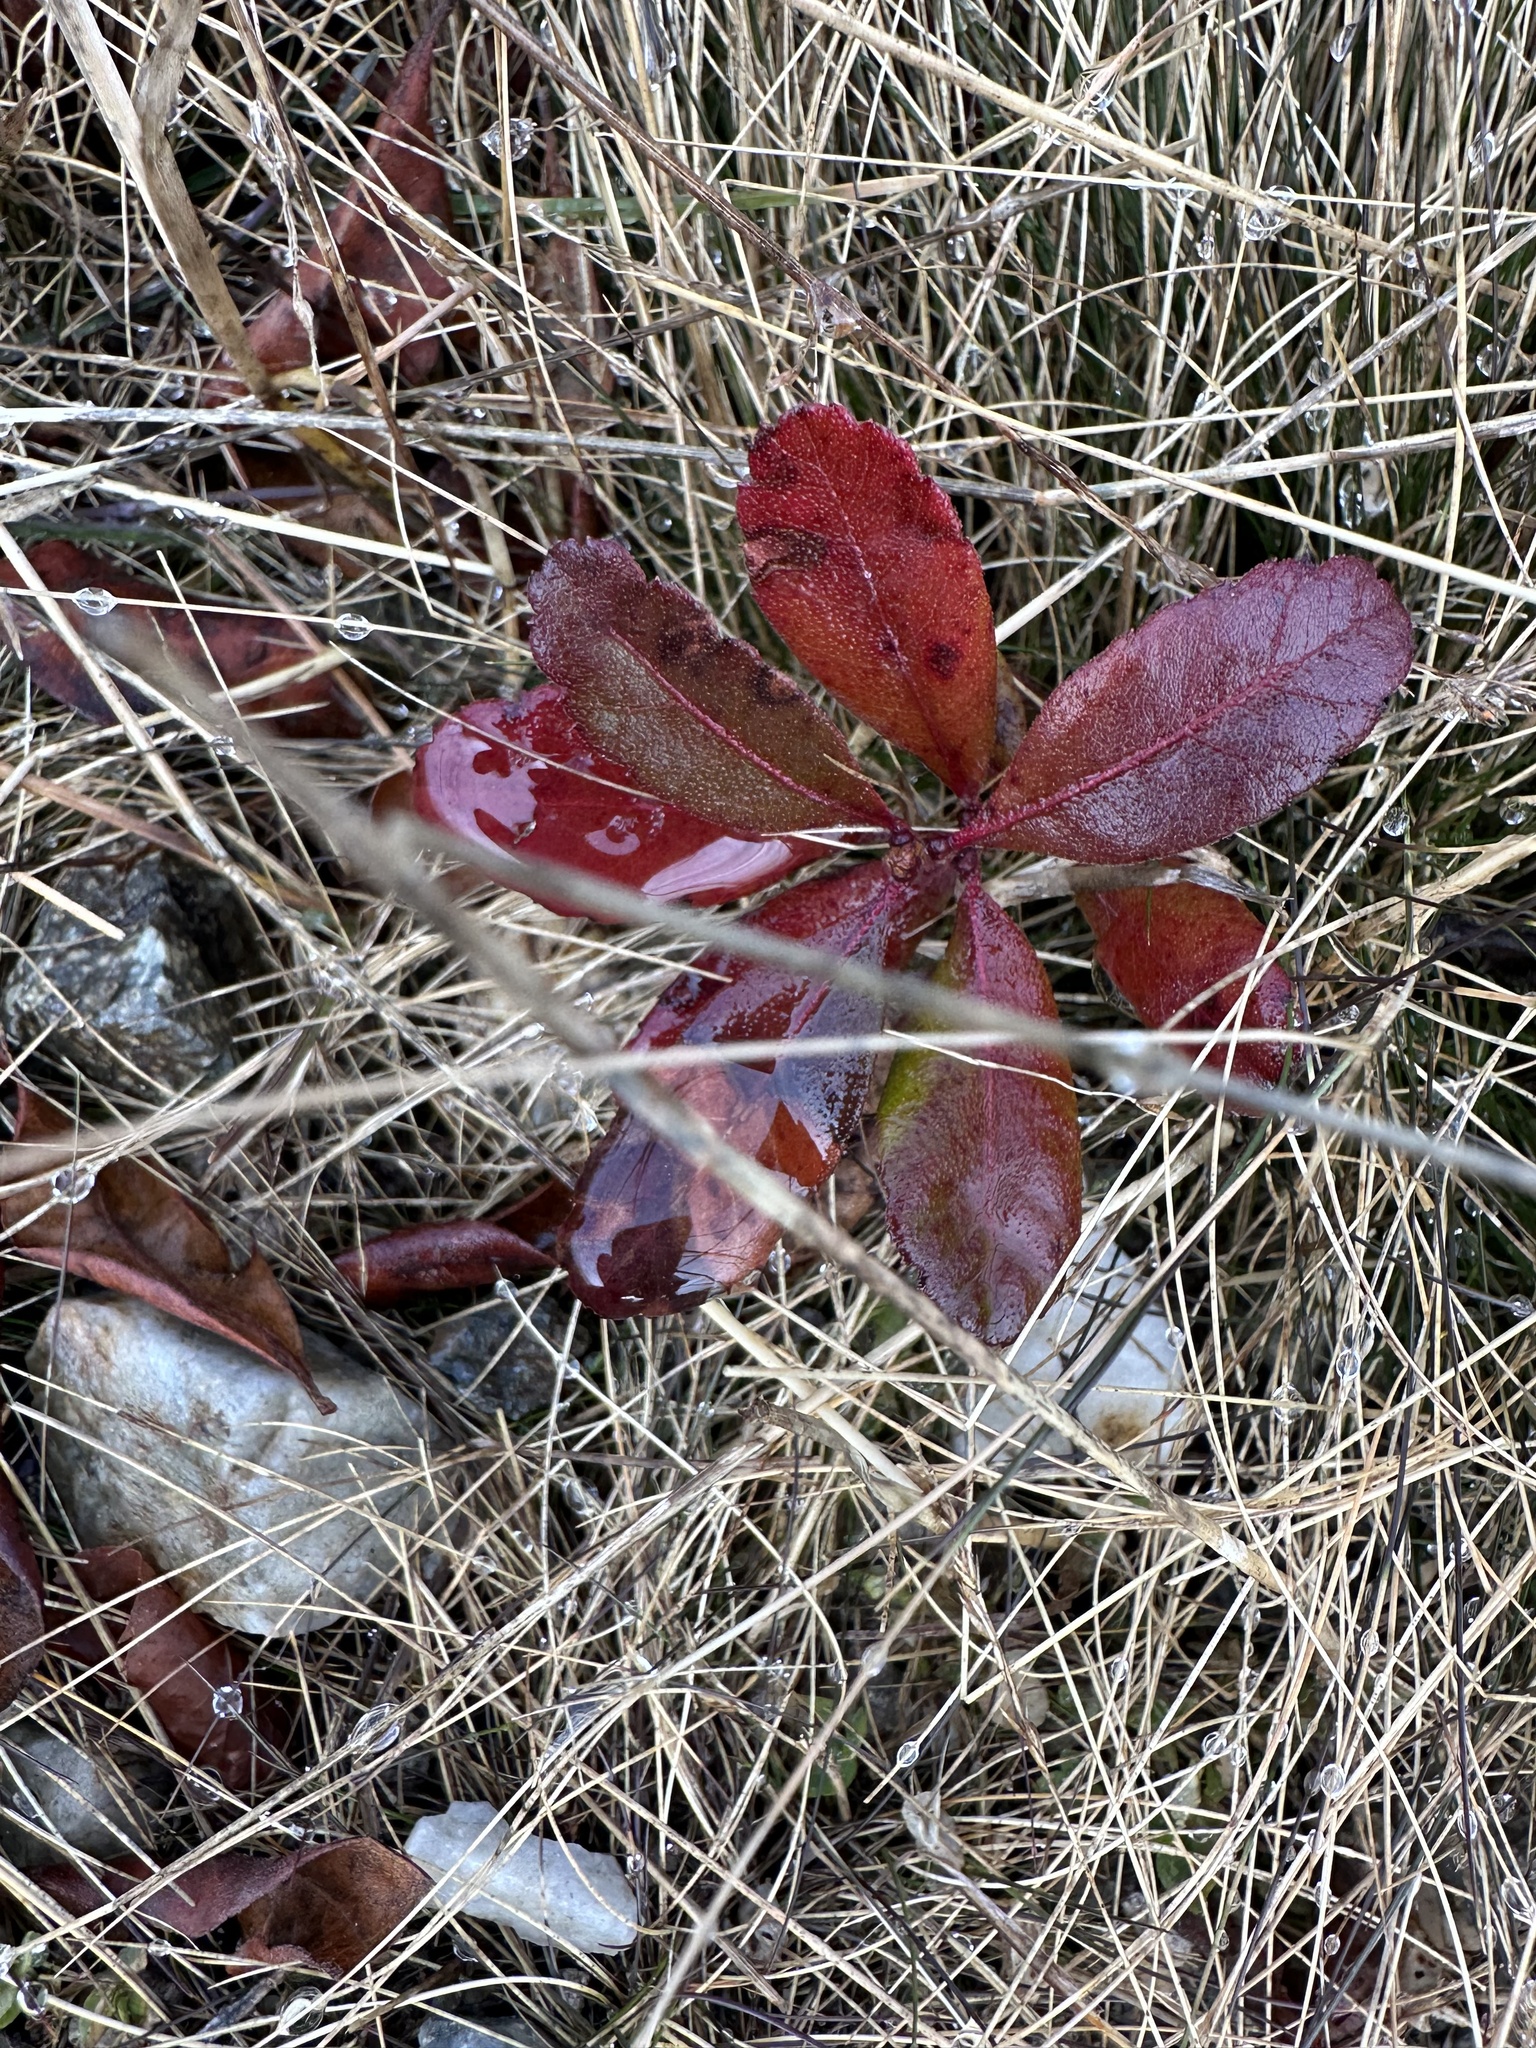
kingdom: Plantae
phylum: Tracheophyta
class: Magnoliopsida
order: Fagales
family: Myricaceae
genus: Morella
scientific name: Morella pensylvanica
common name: Northern bayberry
